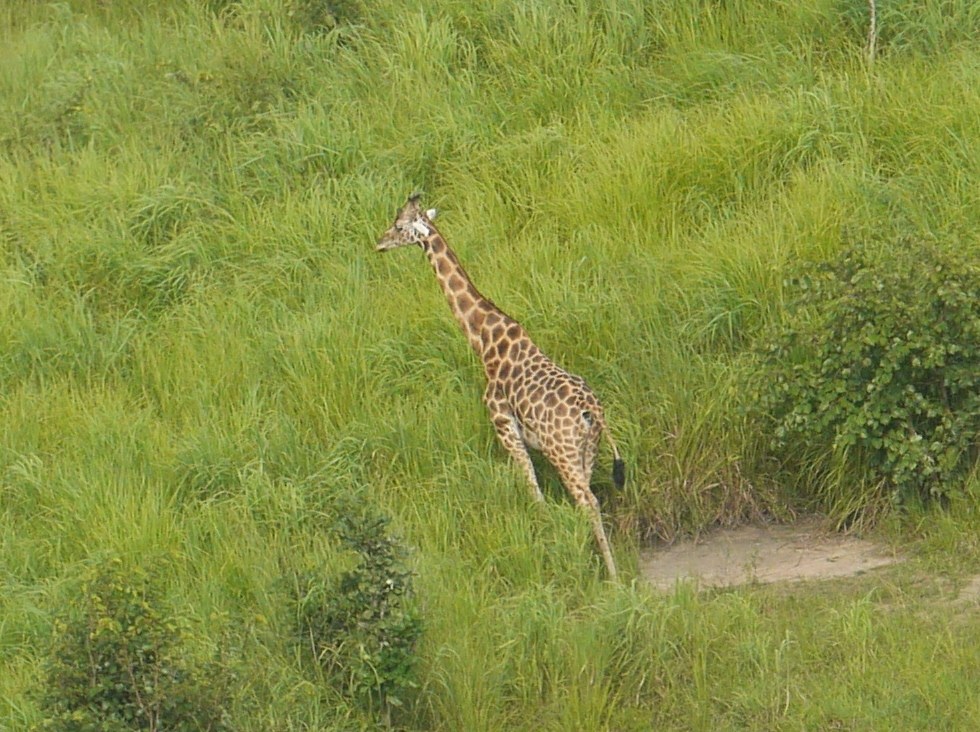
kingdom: Animalia
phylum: Chordata
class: Mammalia
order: Artiodactyla
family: Giraffidae
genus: Giraffa
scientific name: Giraffa camelopardalis
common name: Giraffe
